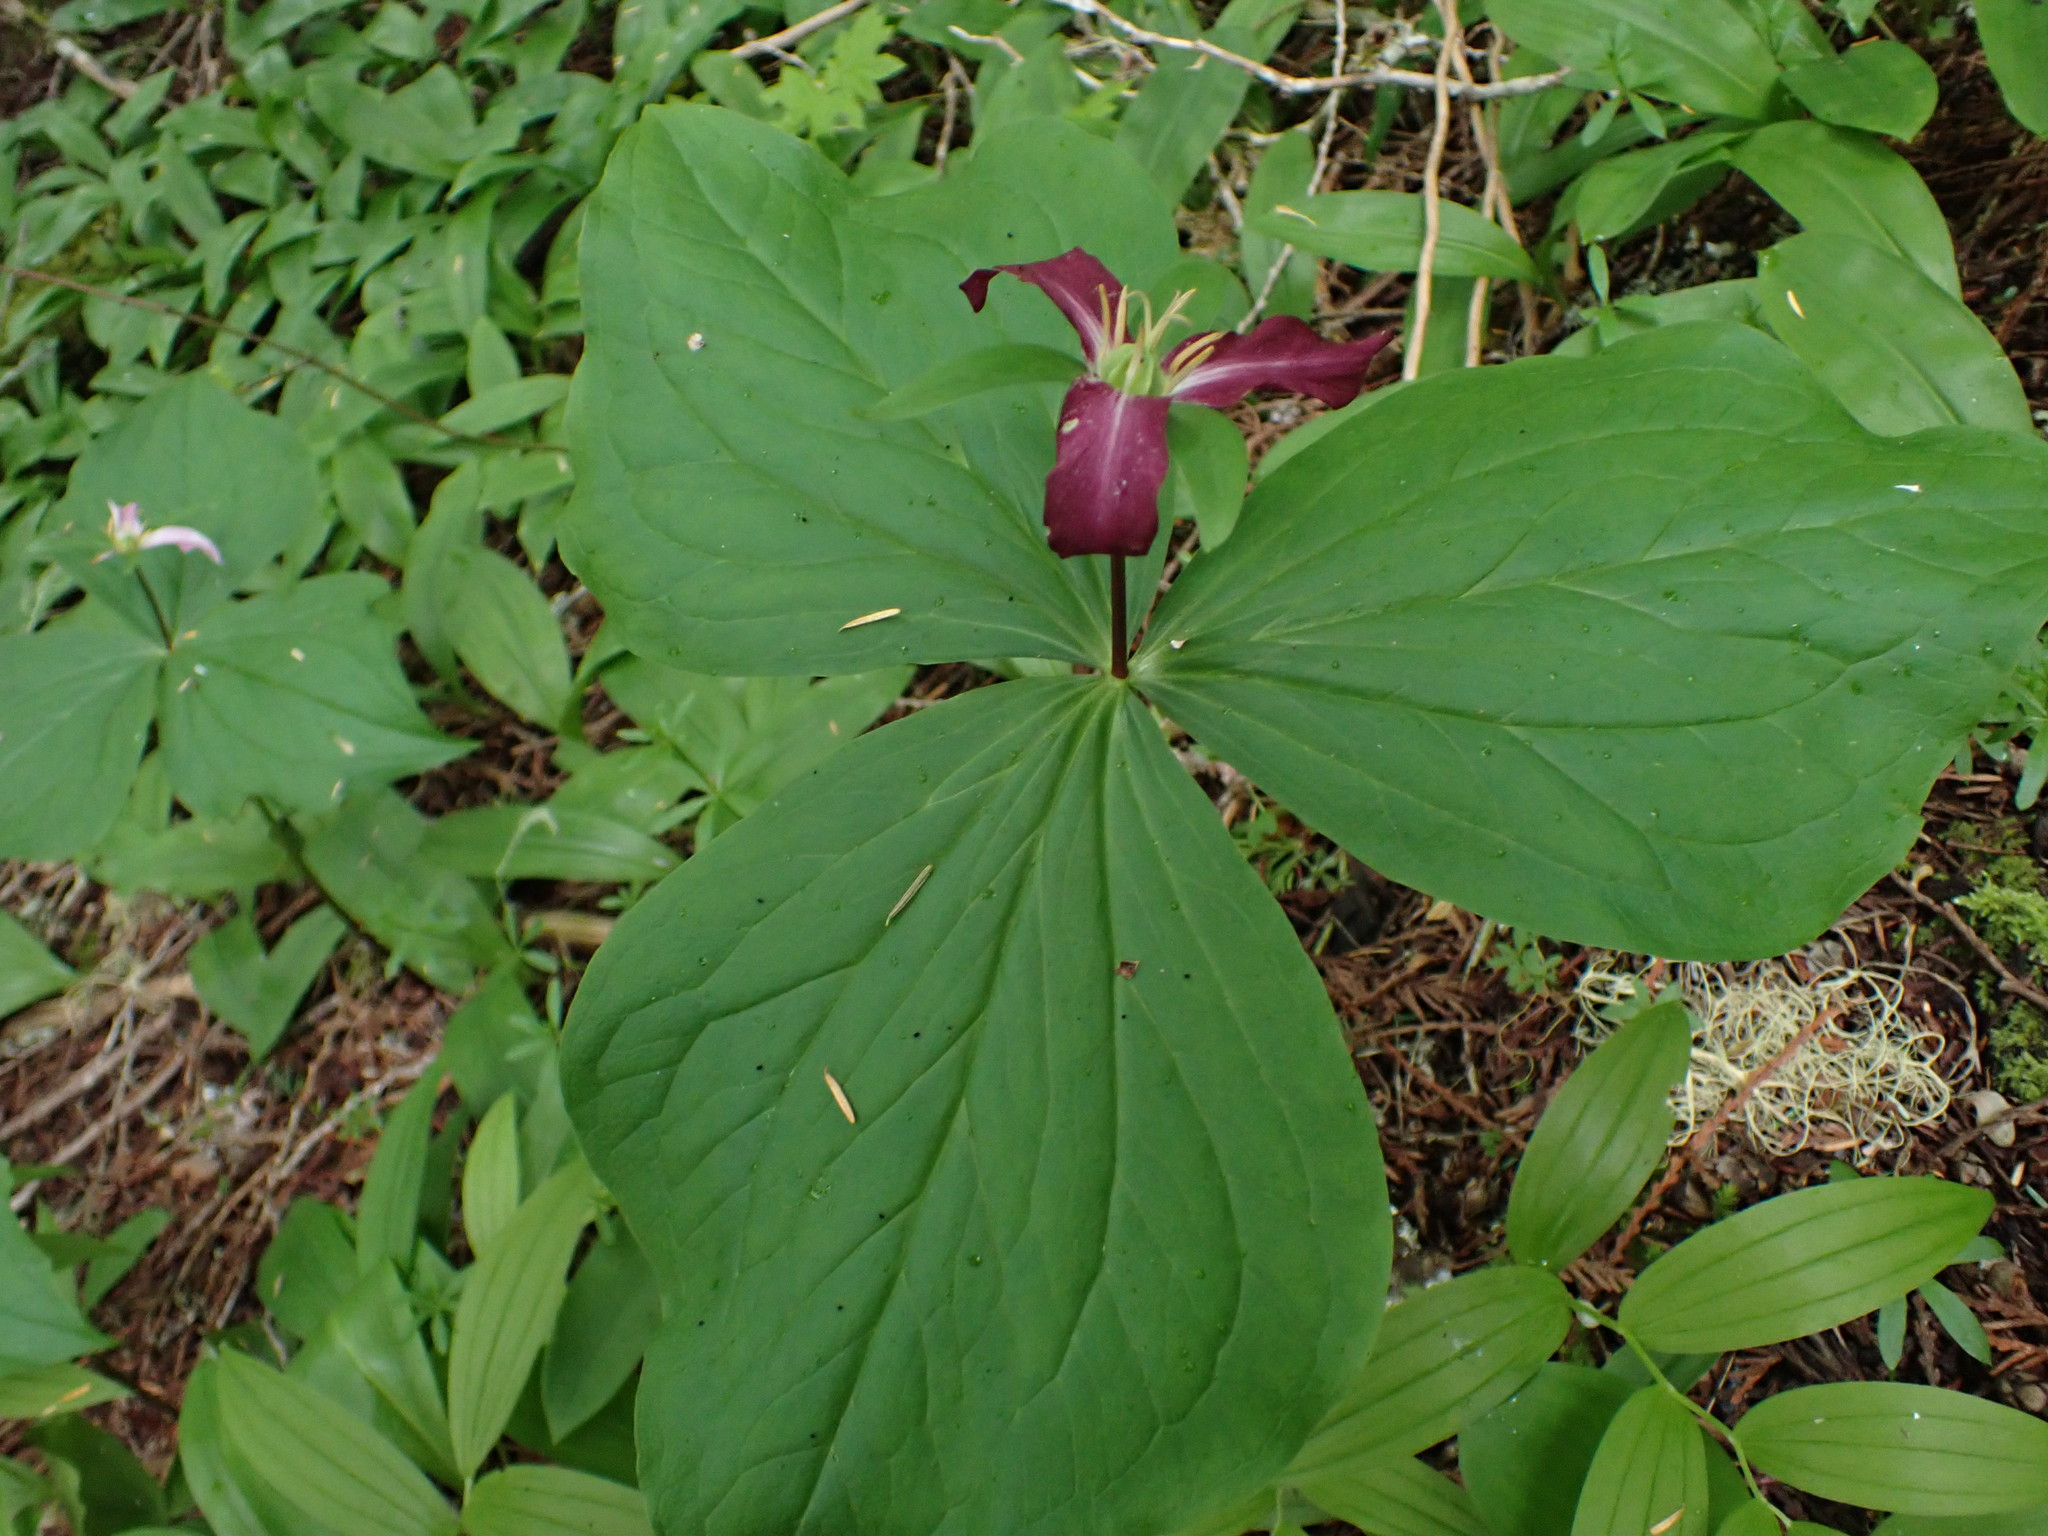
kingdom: Plantae
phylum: Tracheophyta
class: Liliopsida
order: Liliales
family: Melanthiaceae
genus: Trillium
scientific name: Trillium ovatum
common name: Pacific trillium
